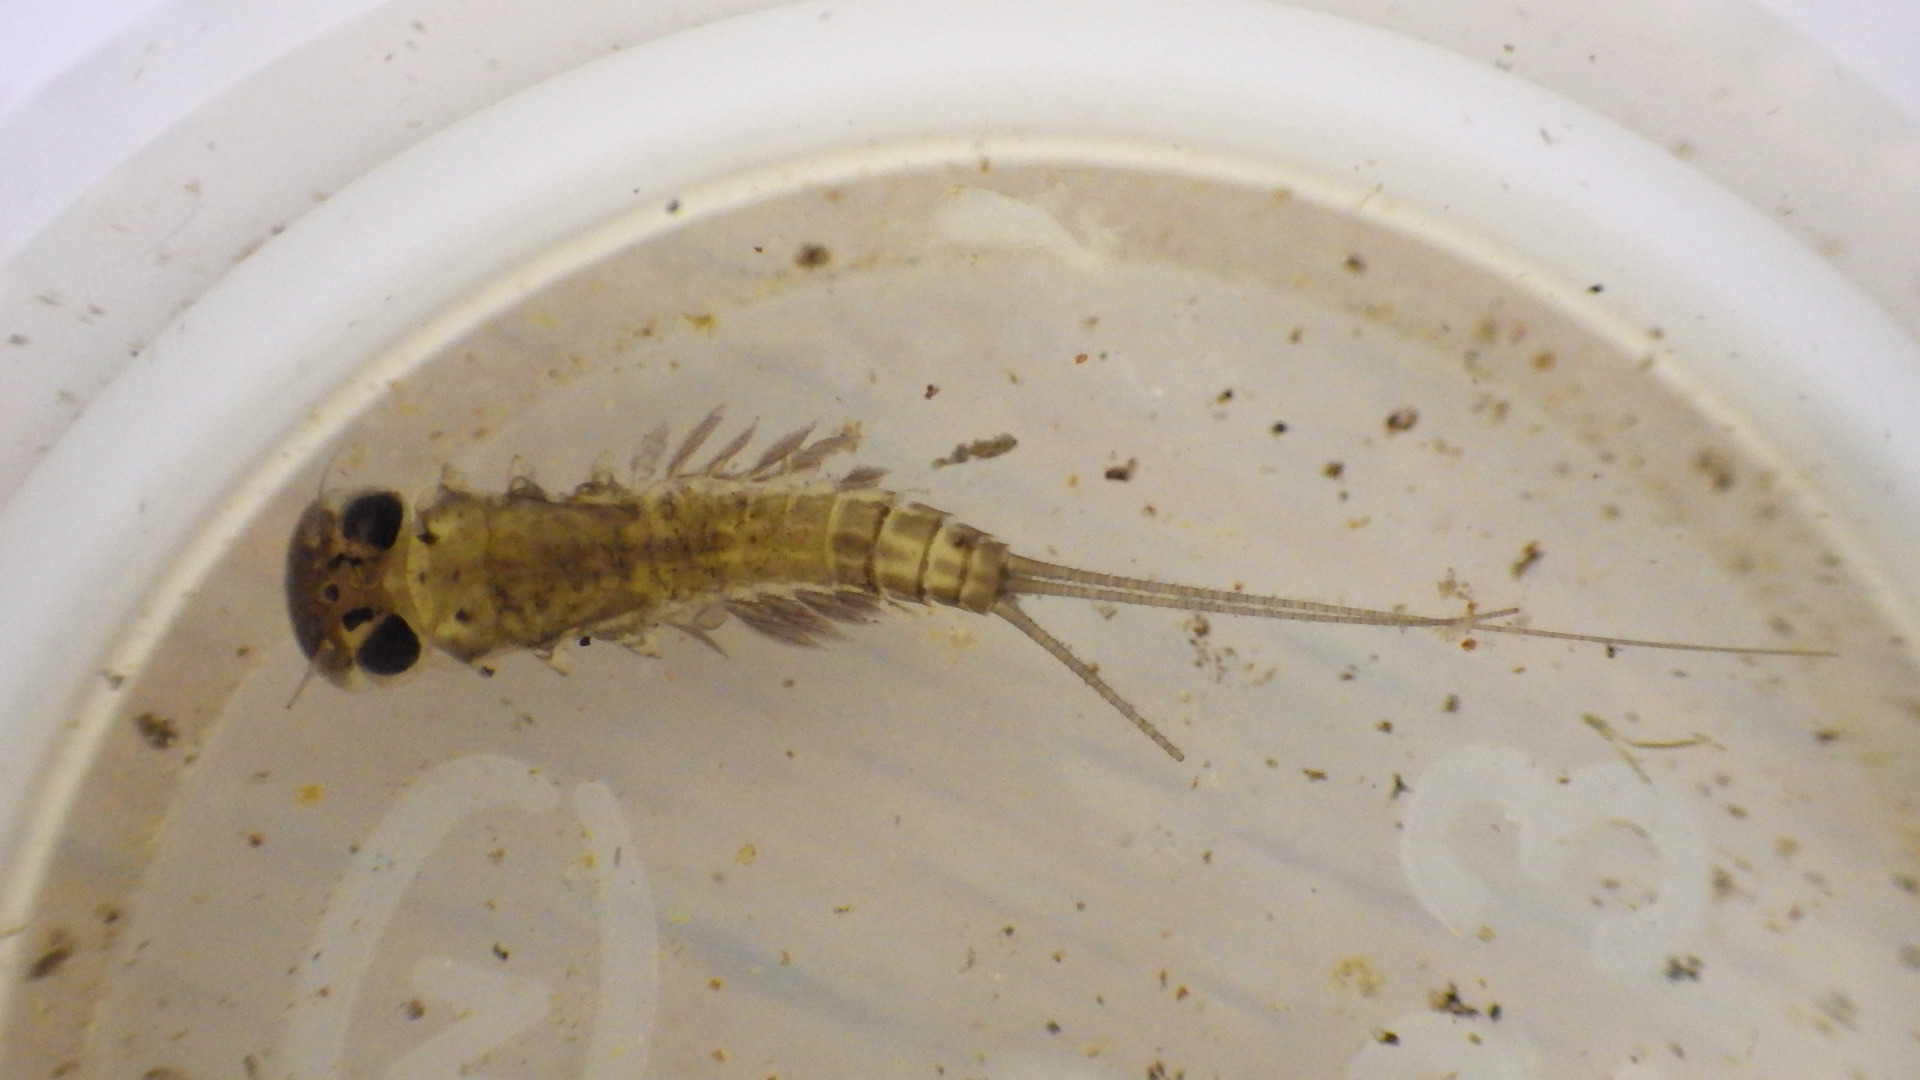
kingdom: Animalia
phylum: Arthropoda
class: Insecta
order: Ephemeroptera
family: Heptageniidae
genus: Stenacron
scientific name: Stenacron interpunctatum
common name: Orange cahill
